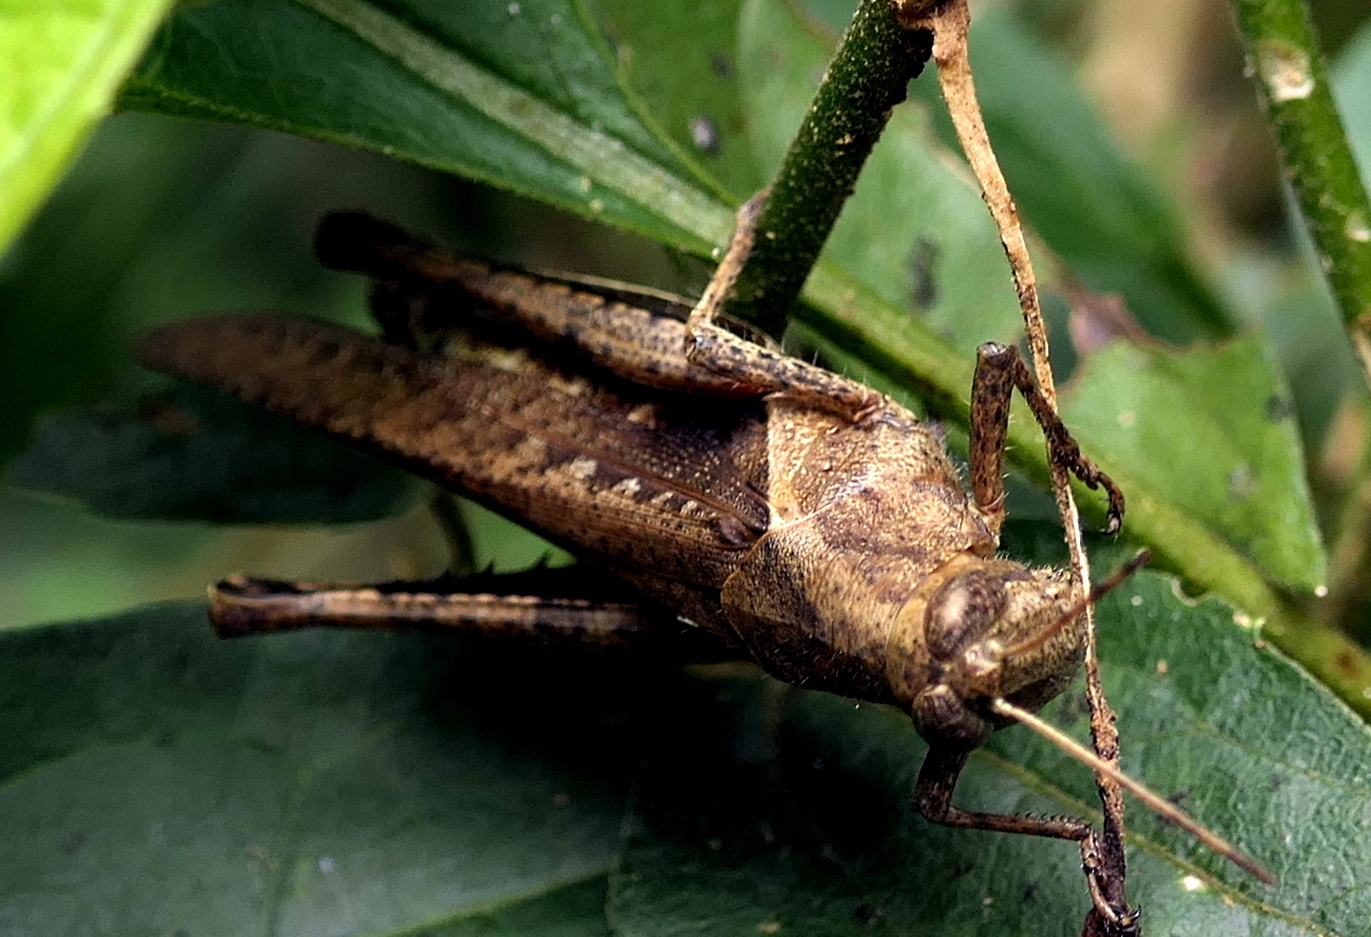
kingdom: Animalia
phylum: Arthropoda
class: Insecta
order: Orthoptera
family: Acrididae
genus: Abracris
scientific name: Abracris flavolineata
